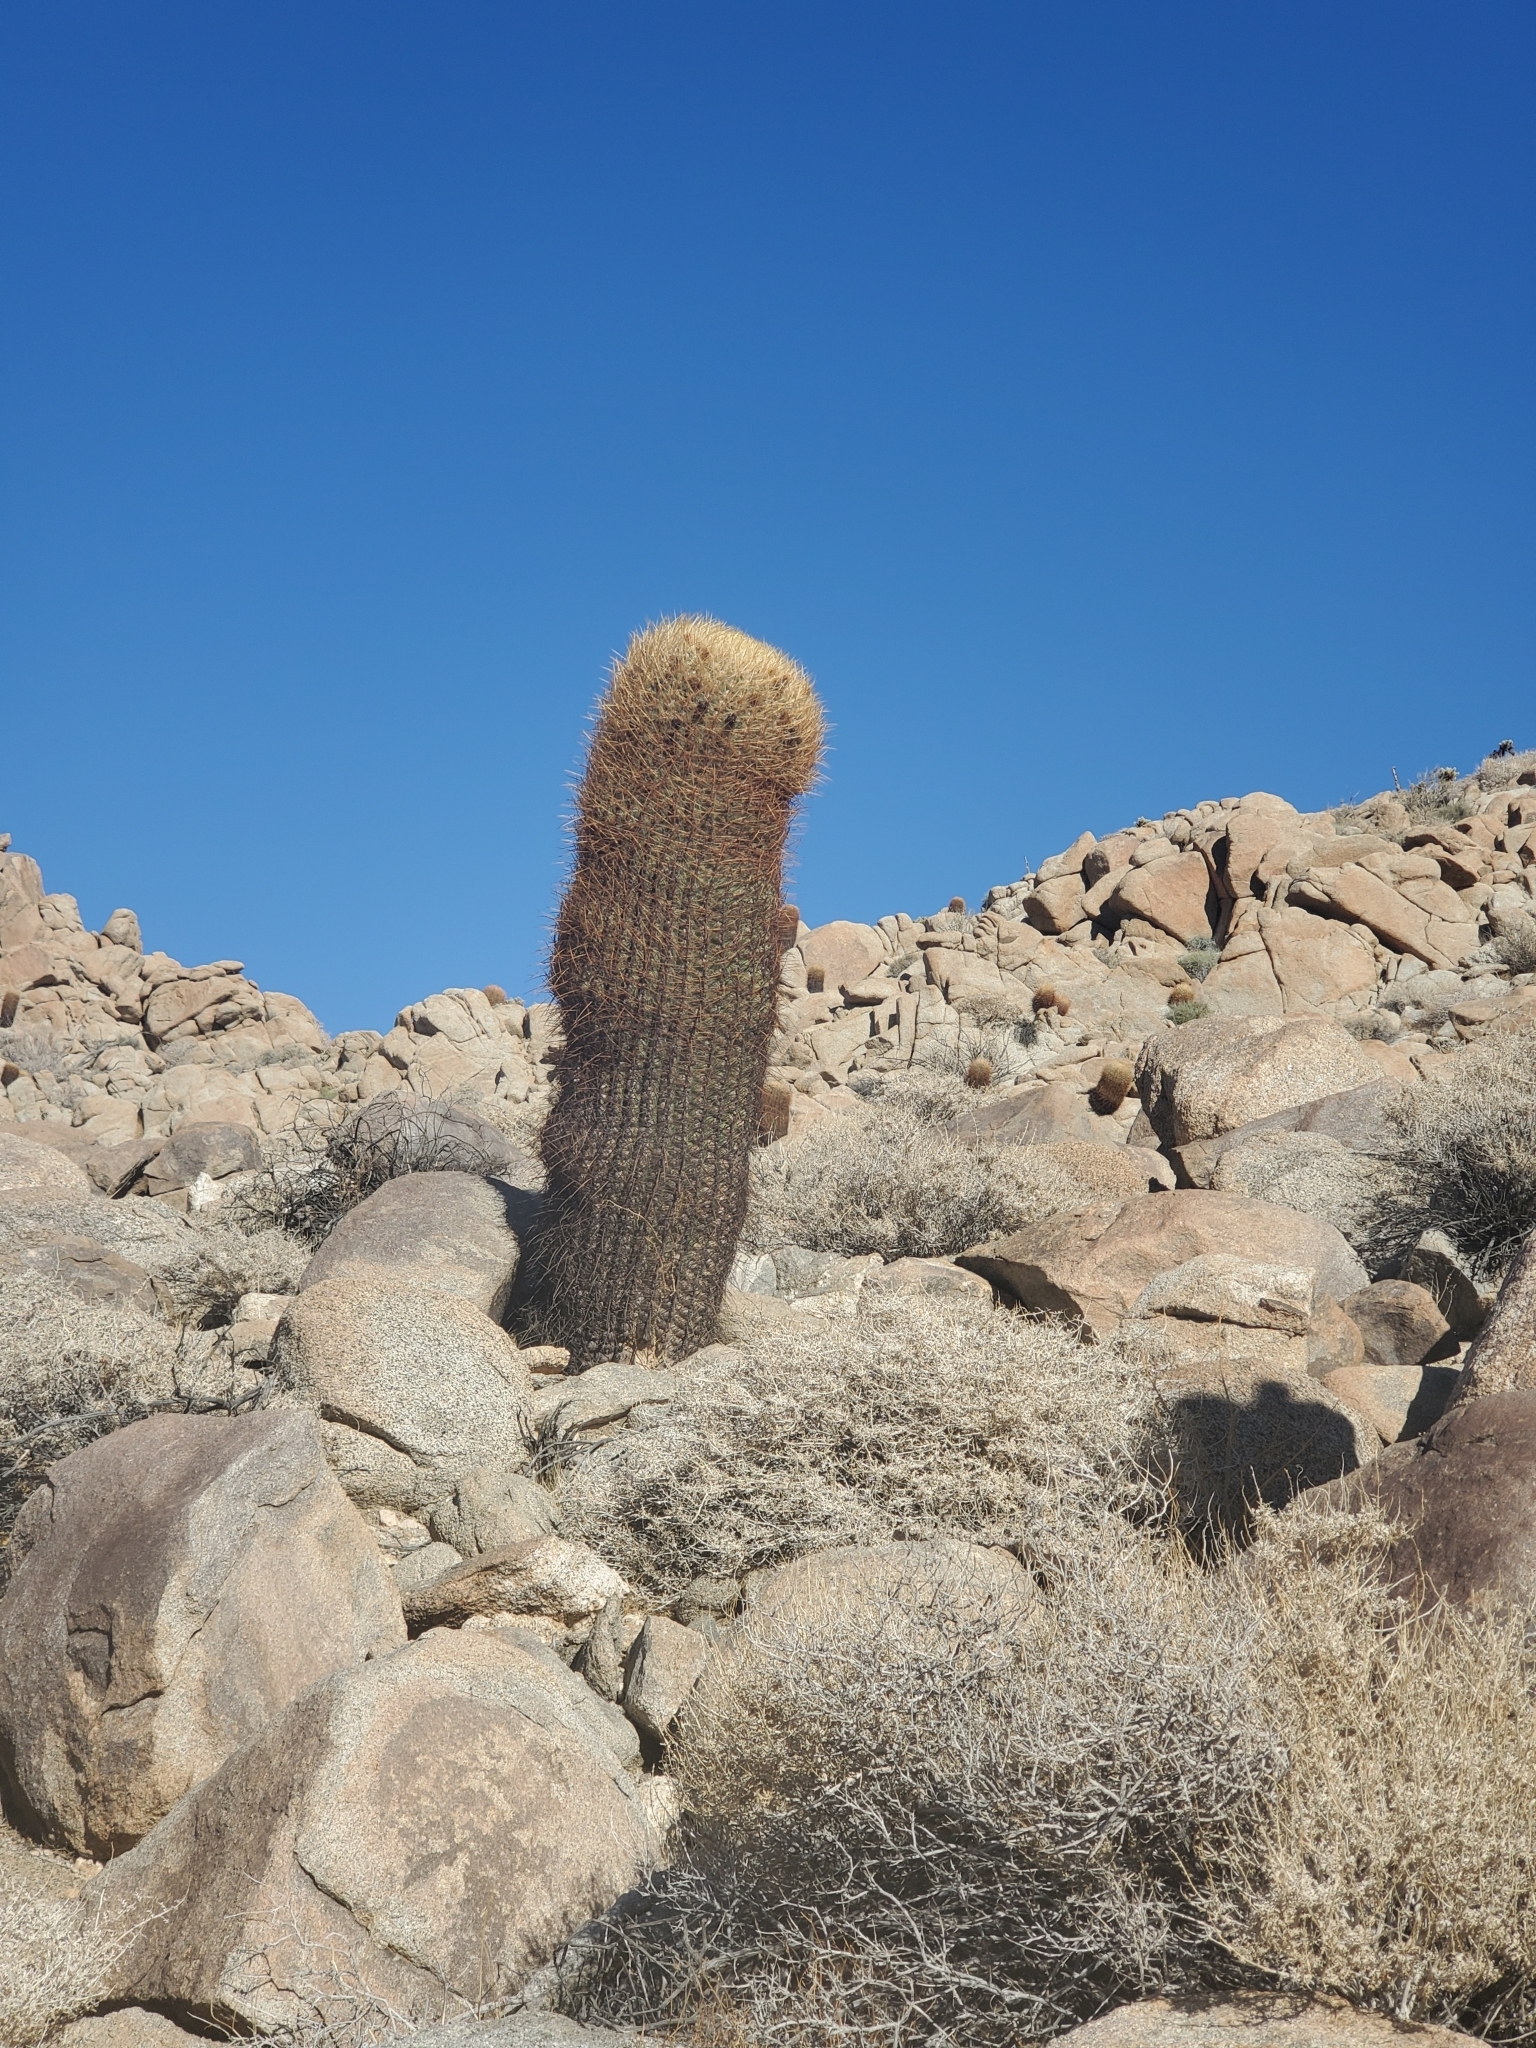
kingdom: Plantae
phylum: Tracheophyta
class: Magnoliopsida
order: Caryophyllales
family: Cactaceae
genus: Ferocactus
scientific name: Ferocactus cylindraceus
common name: California barrel cactus
